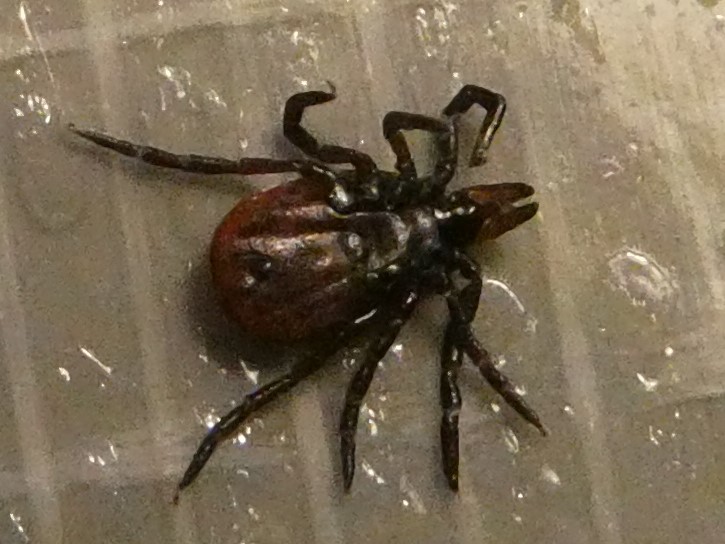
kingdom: Animalia
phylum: Arthropoda
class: Arachnida
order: Ixodida
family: Ixodidae
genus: Ixodes
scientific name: Ixodes scapularis
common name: Black legged tick
